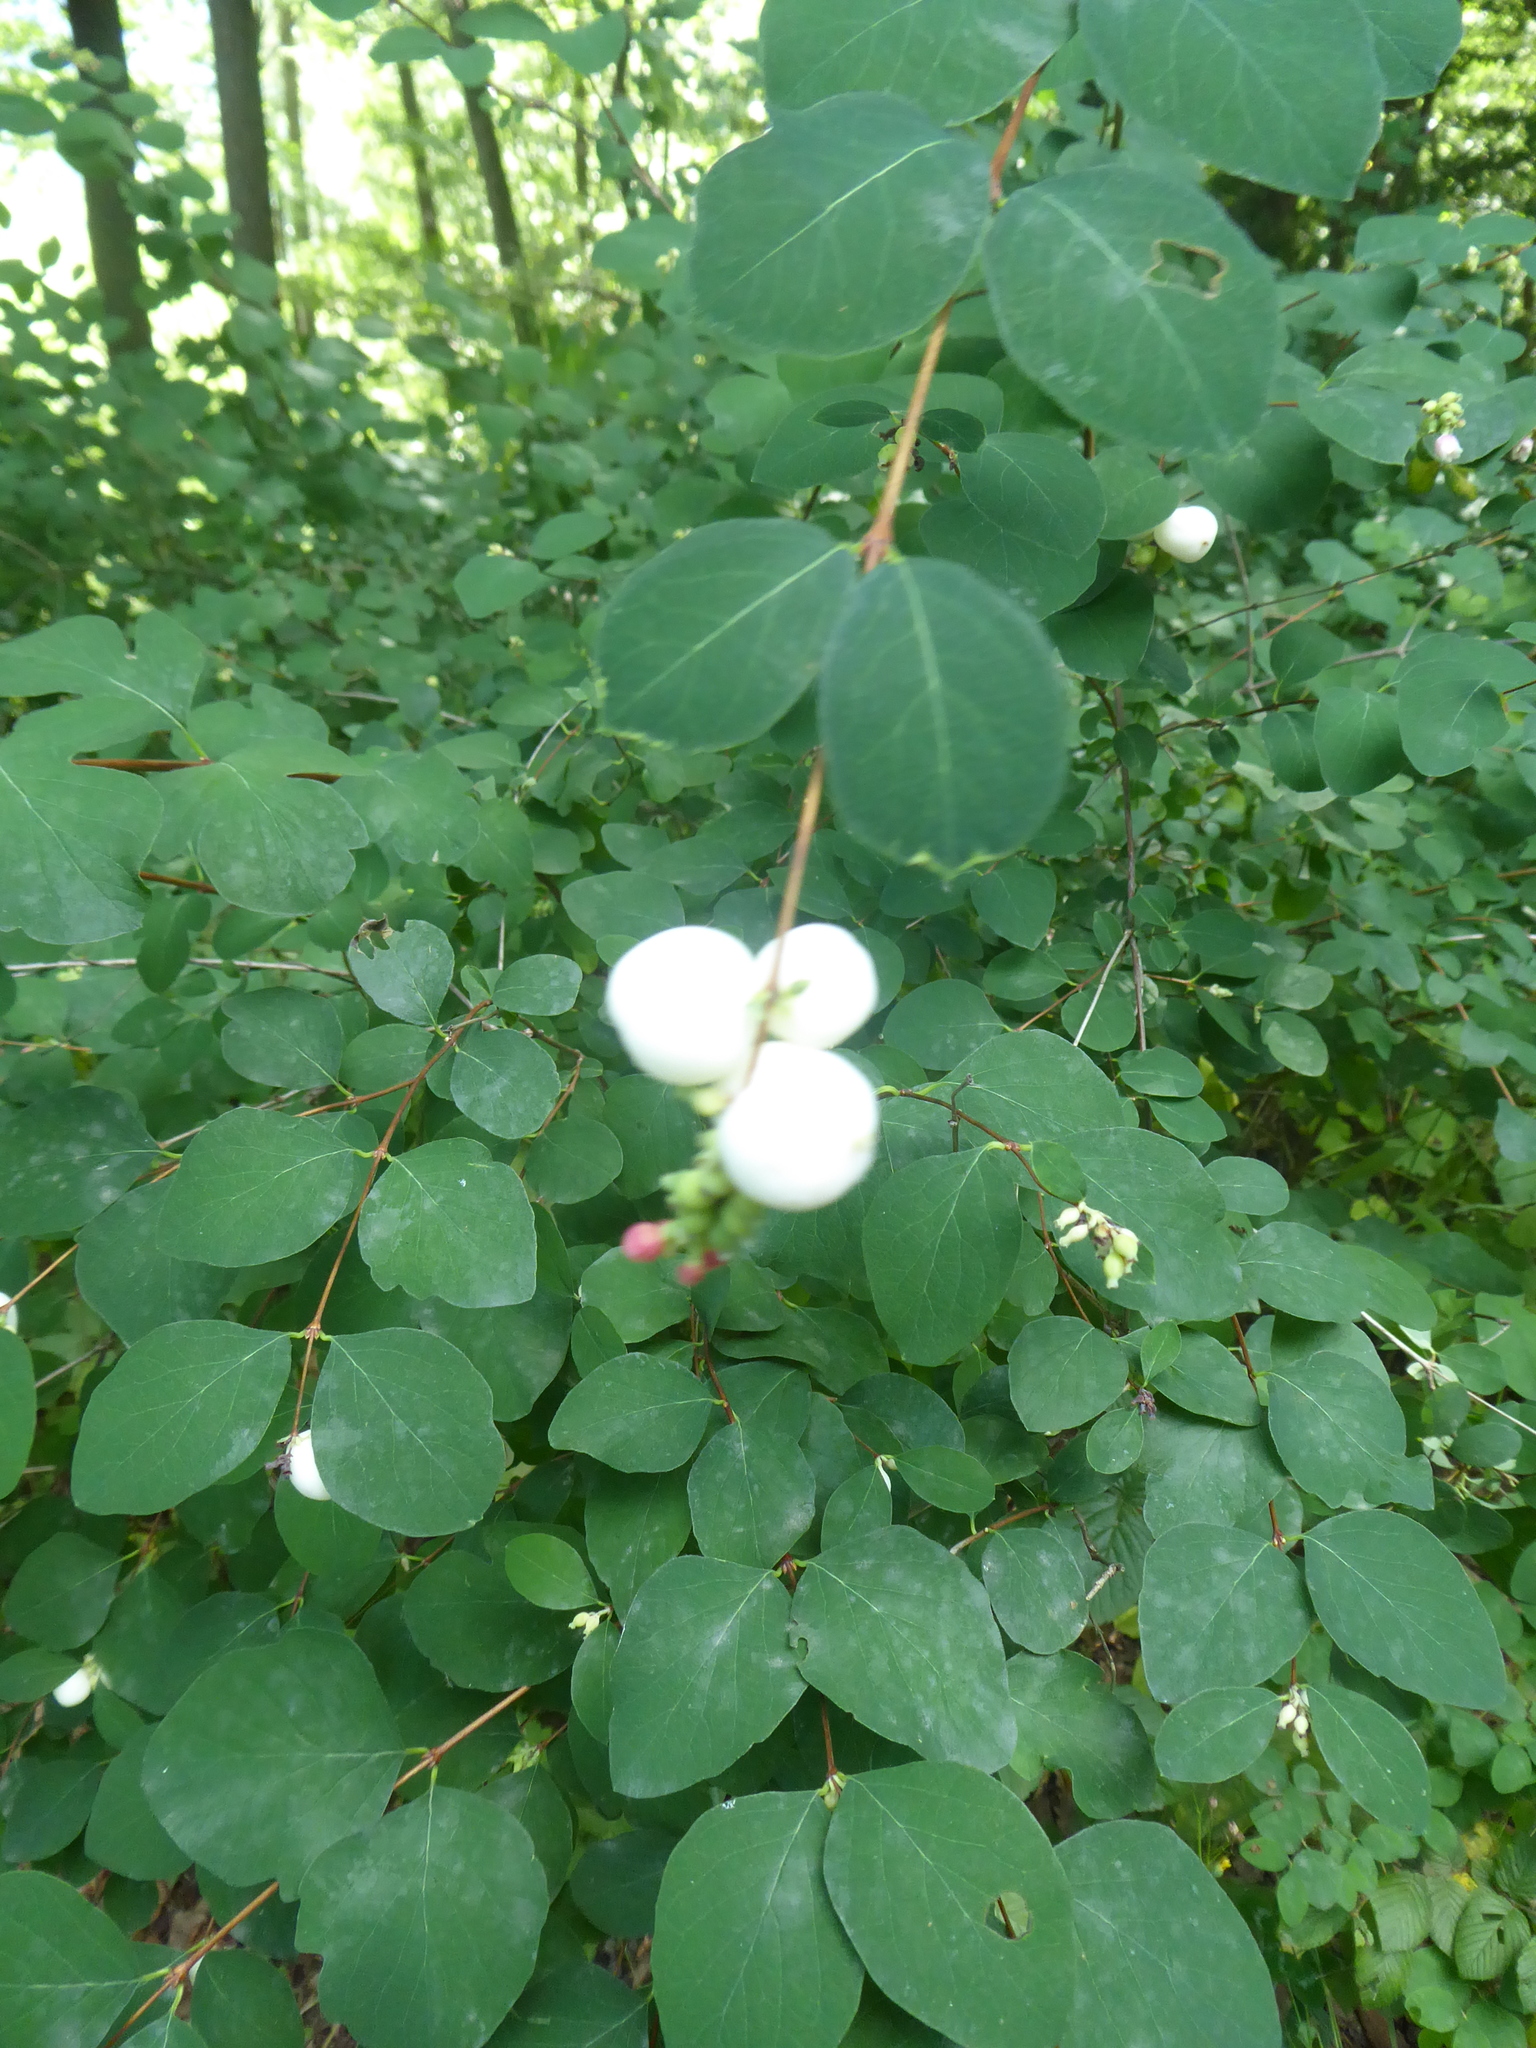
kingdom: Plantae
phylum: Tracheophyta
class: Magnoliopsida
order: Dipsacales
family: Caprifoliaceae
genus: Symphoricarpos
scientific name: Symphoricarpos albus
